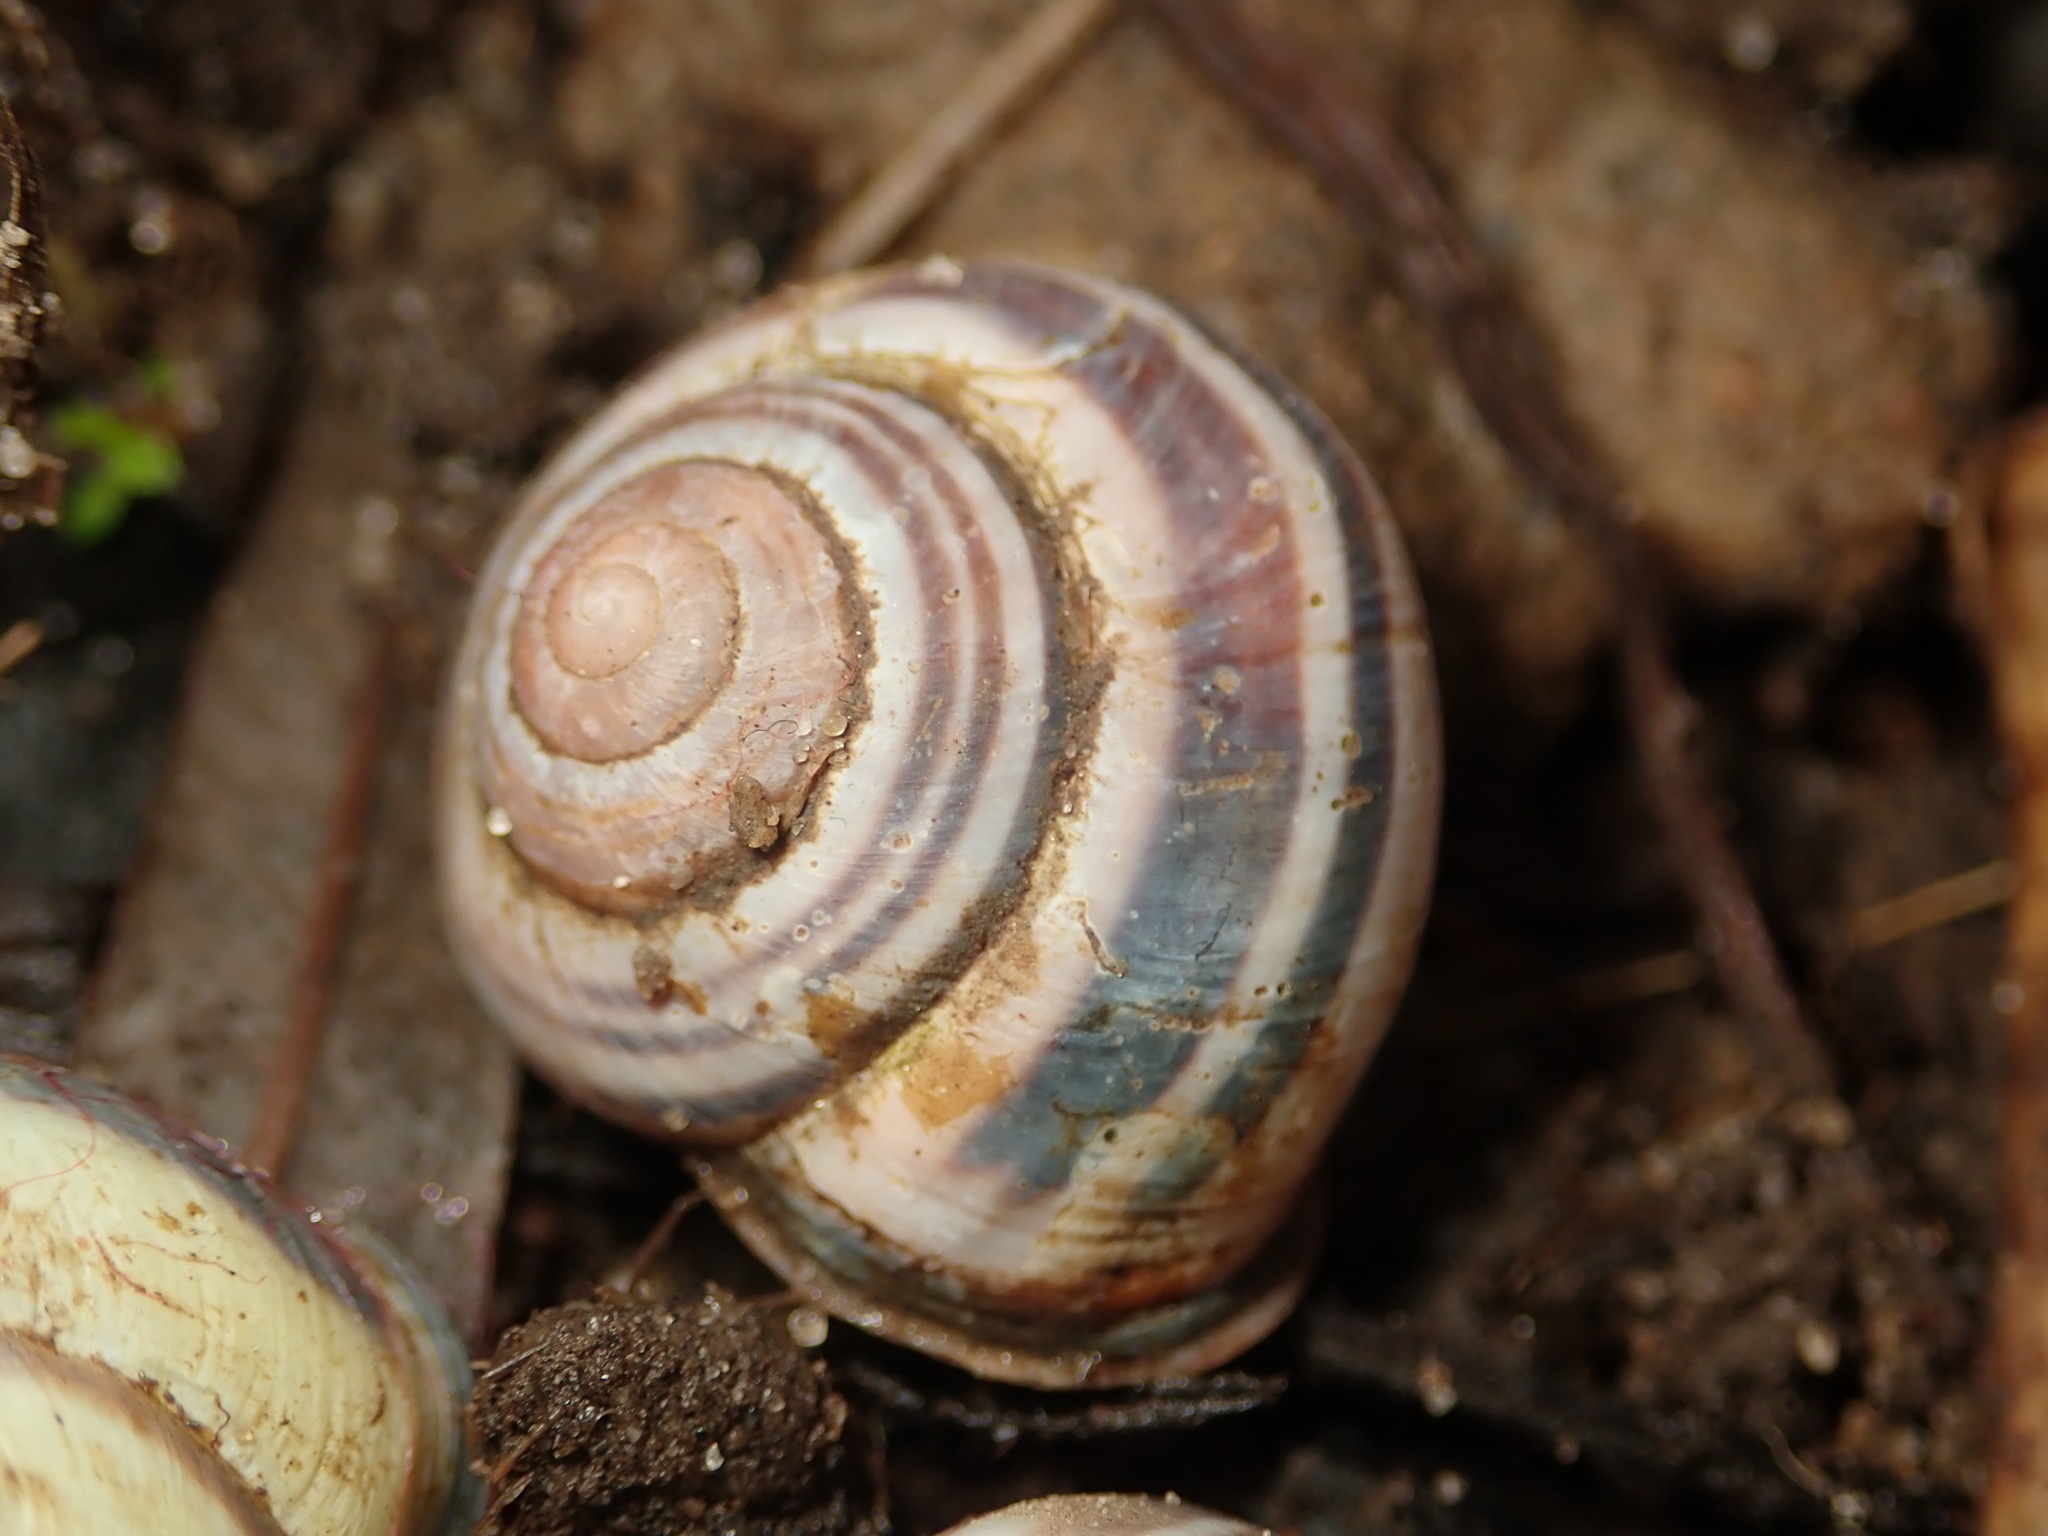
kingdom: Animalia
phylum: Mollusca
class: Gastropoda
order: Stylommatophora
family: Helicidae
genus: Cepaea
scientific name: Cepaea nemoralis
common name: Grovesnail
